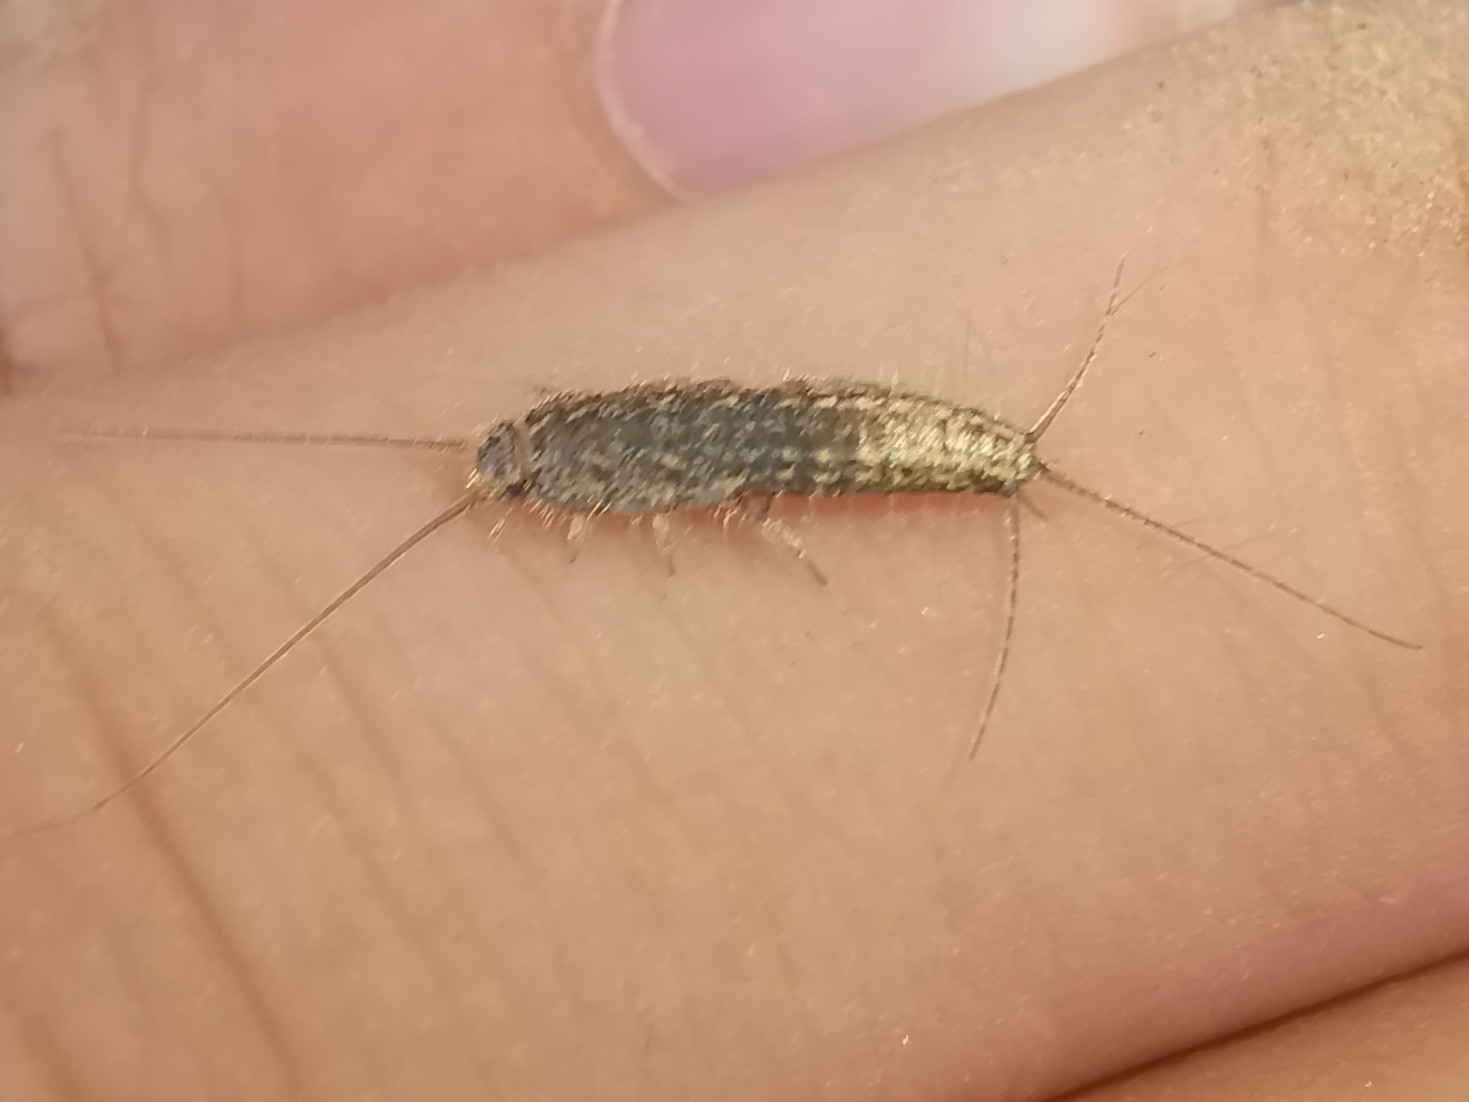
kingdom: Animalia
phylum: Arthropoda
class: Insecta
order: Zygentoma
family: Lepismatidae
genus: Ctenolepisma
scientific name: Ctenolepisma lineata
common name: Four-lined silverfish
